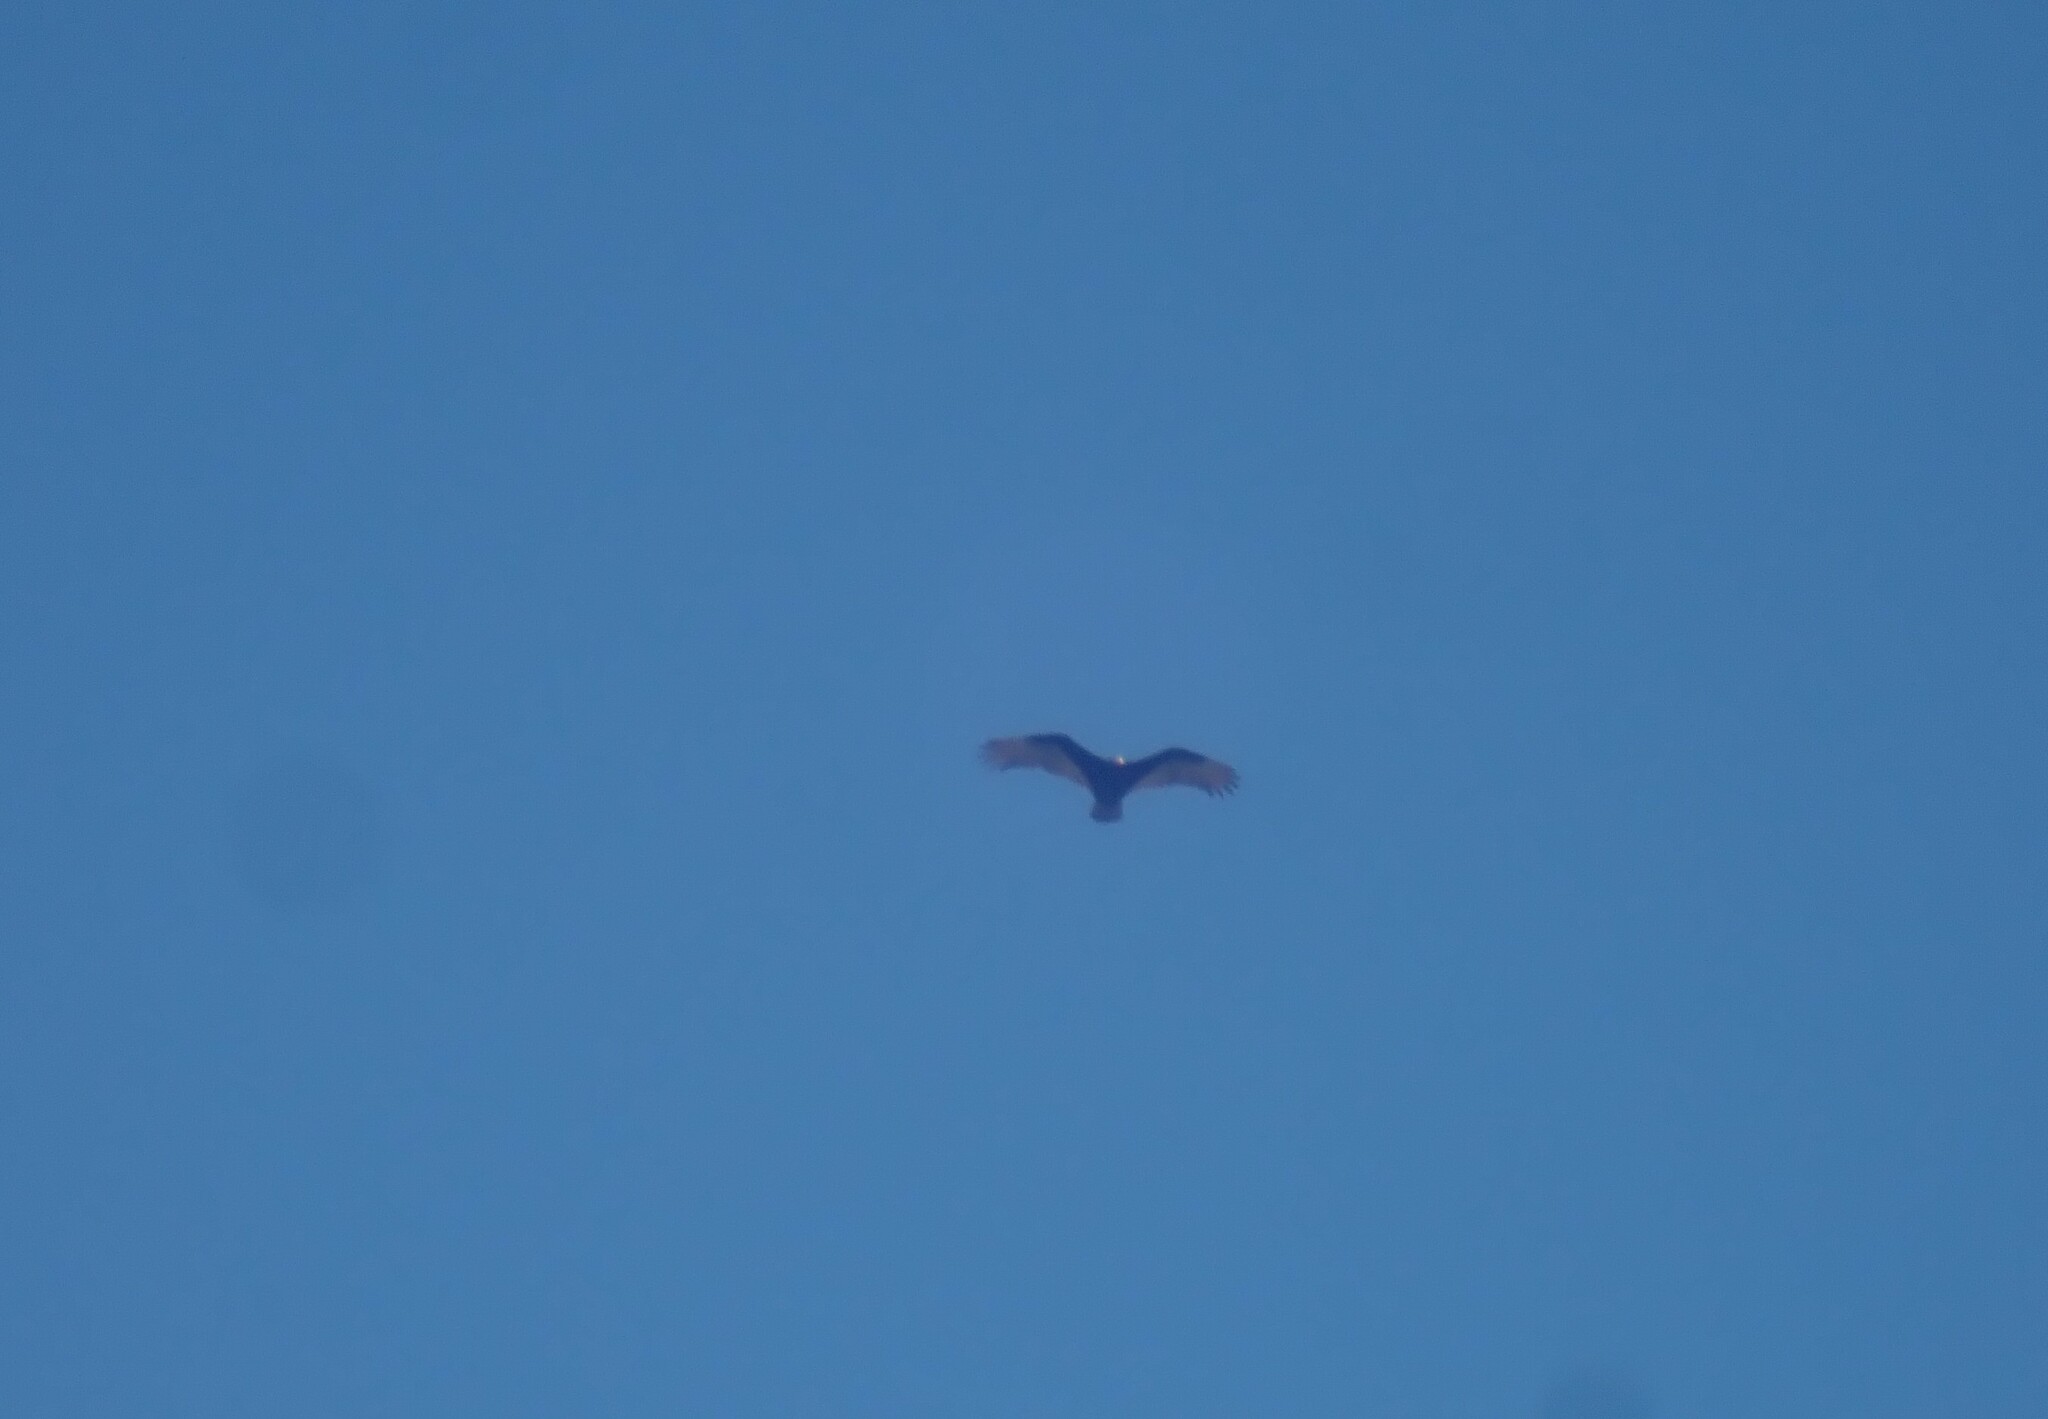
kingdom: Animalia
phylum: Chordata
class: Aves
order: Accipitriformes
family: Cathartidae
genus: Cathartes
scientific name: Cathartes aura
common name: Turkey vulture
